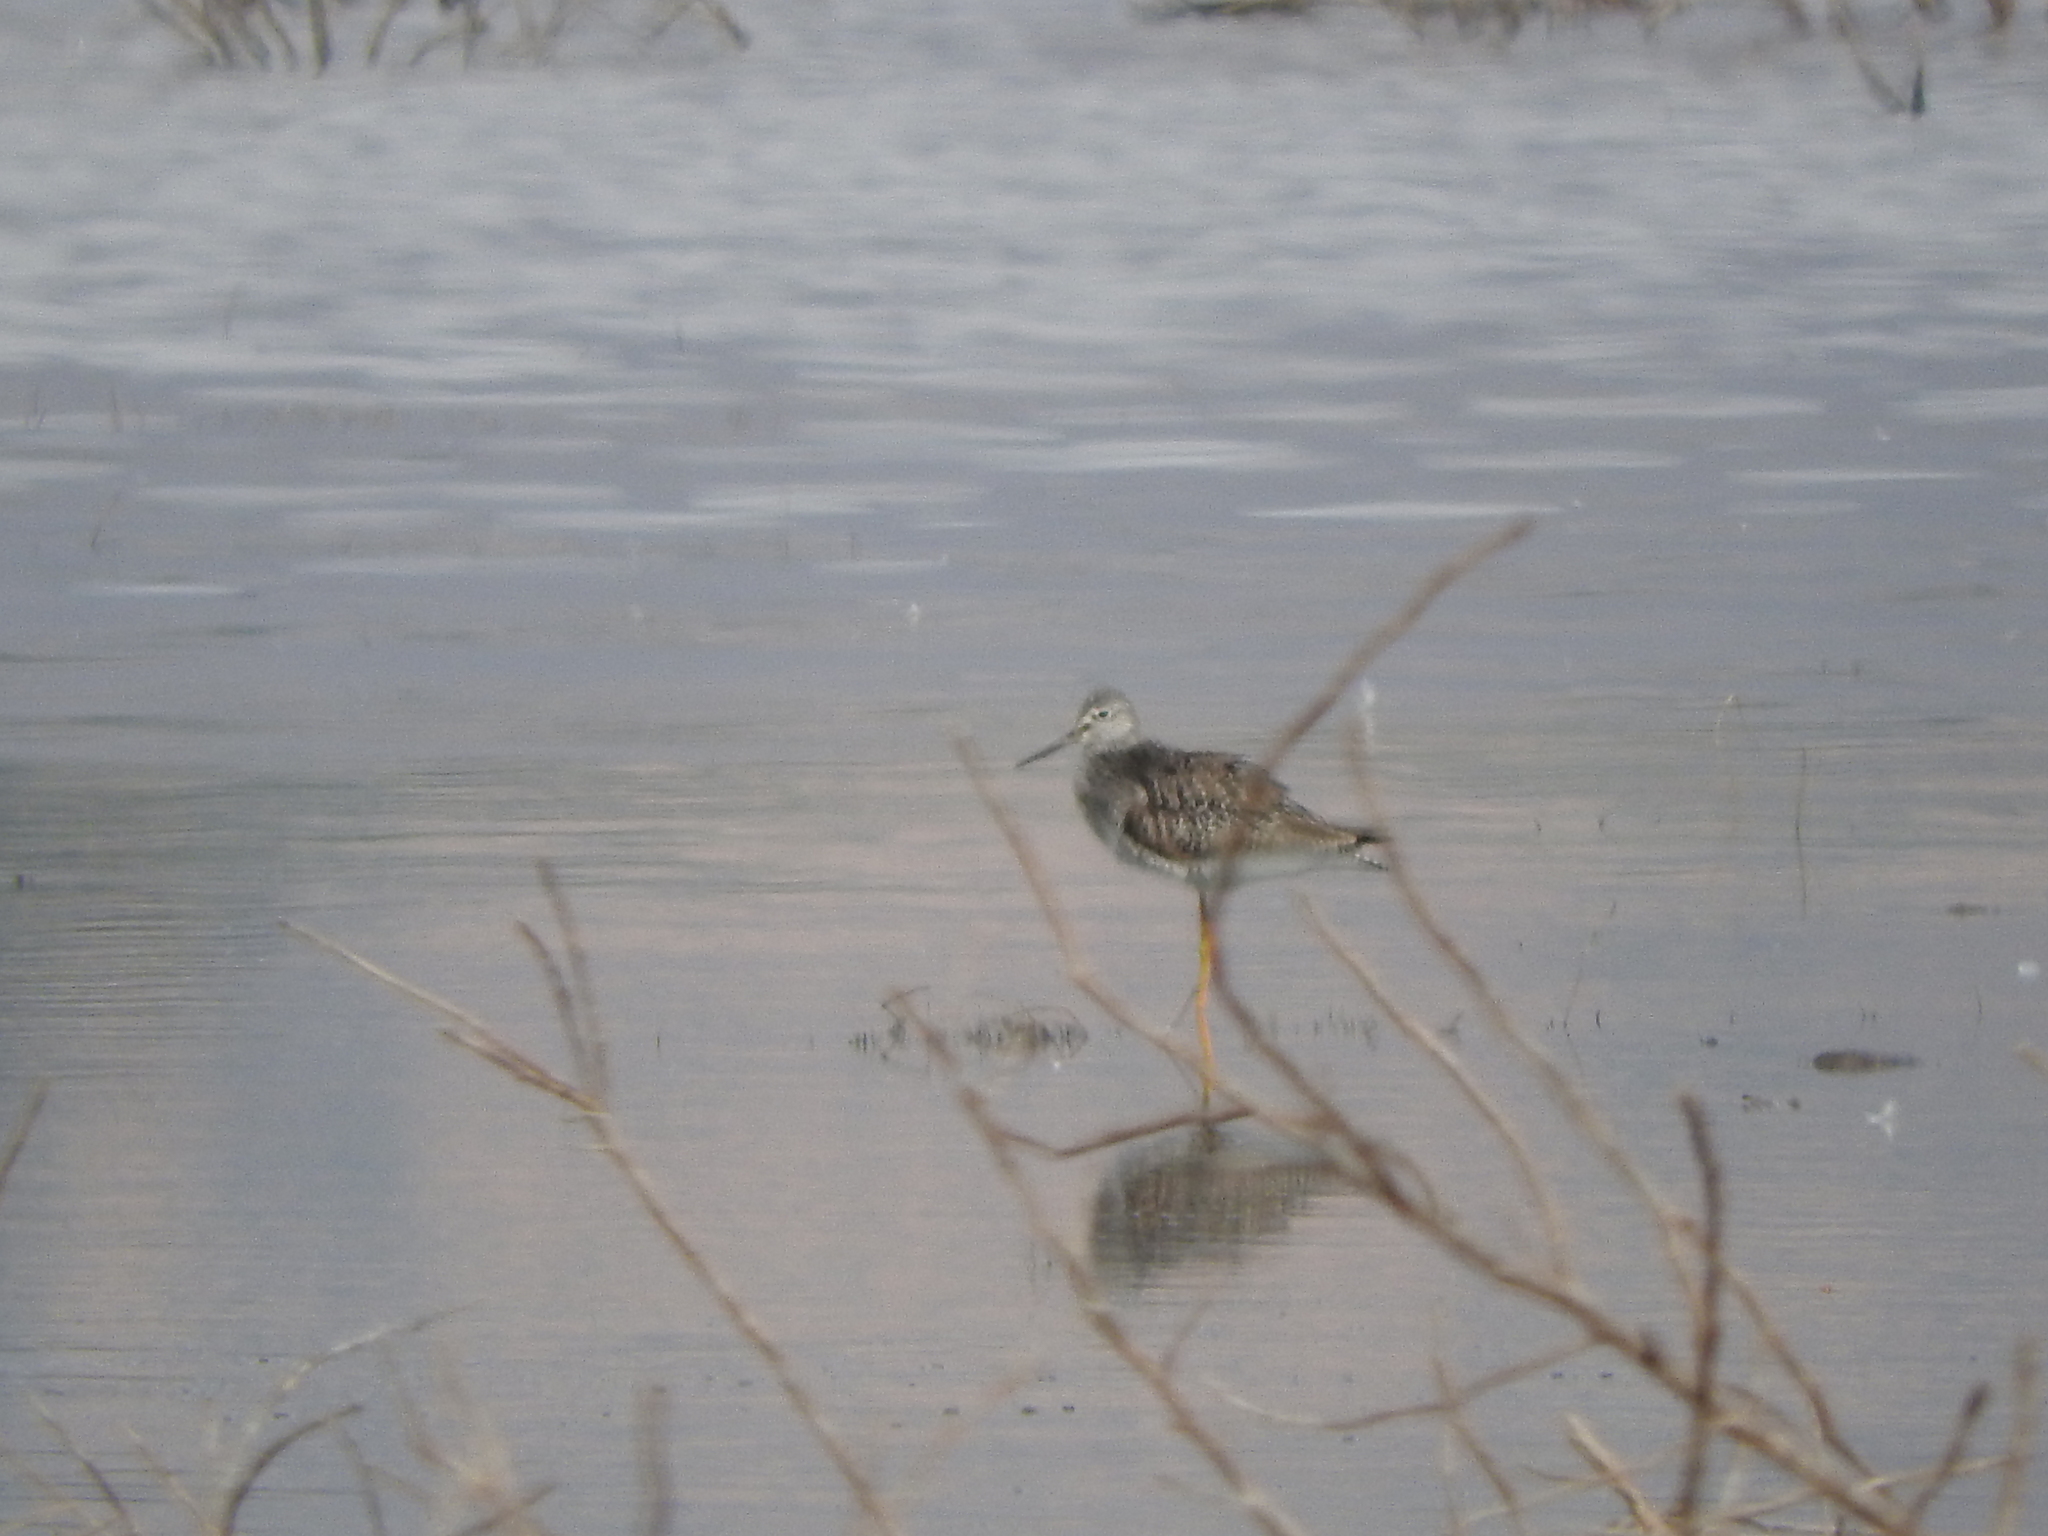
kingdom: Animalia
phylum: Chordata
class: Aves
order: Charadriiformes
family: Scolopacidae
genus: Tringa
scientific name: Tringa melanoleuca
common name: Greater yellowlegs
